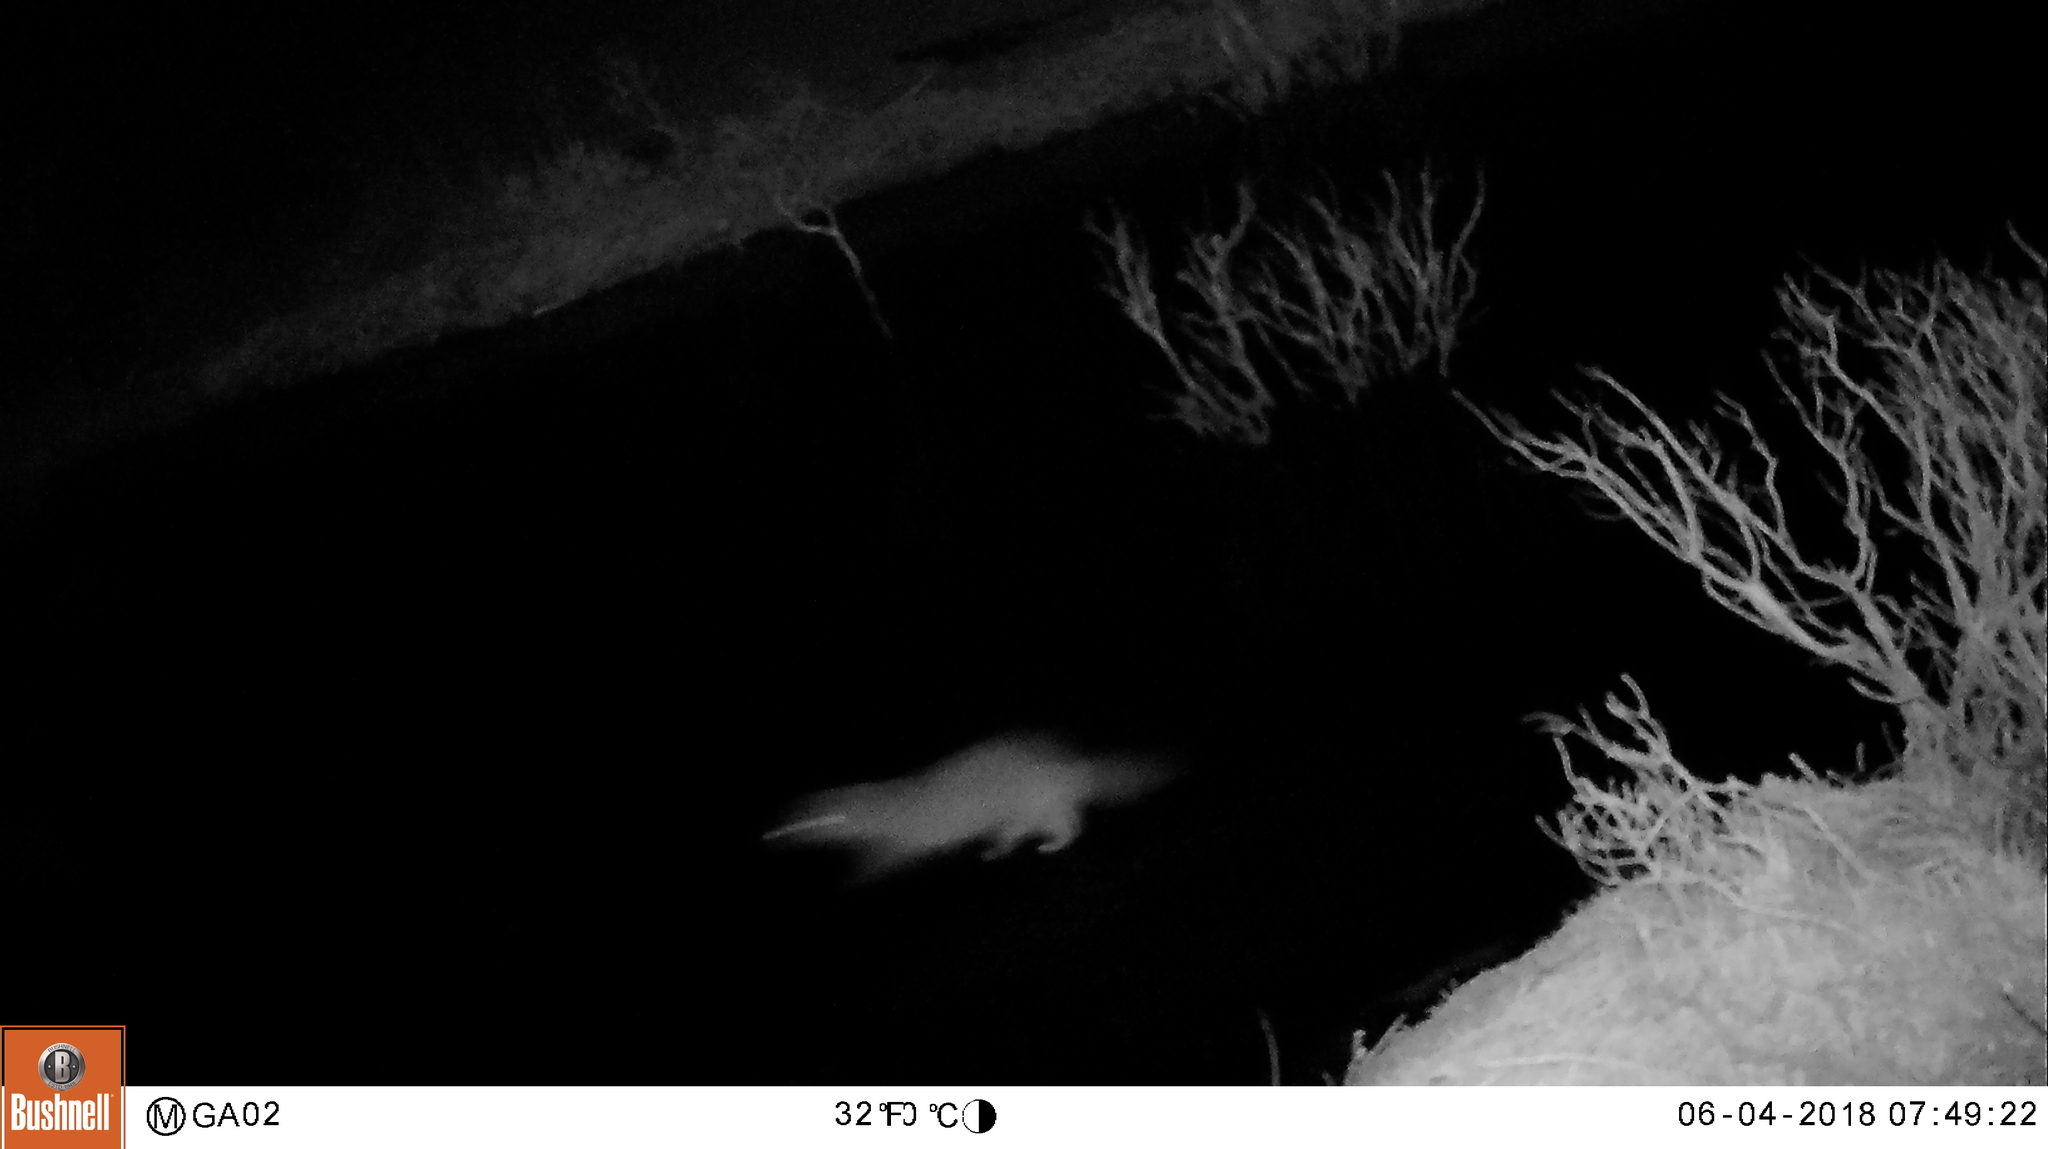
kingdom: Animalia
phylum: Chordata
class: Mammalia
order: Carnivora
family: Mustelidae
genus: Mustela
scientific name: Mustela
